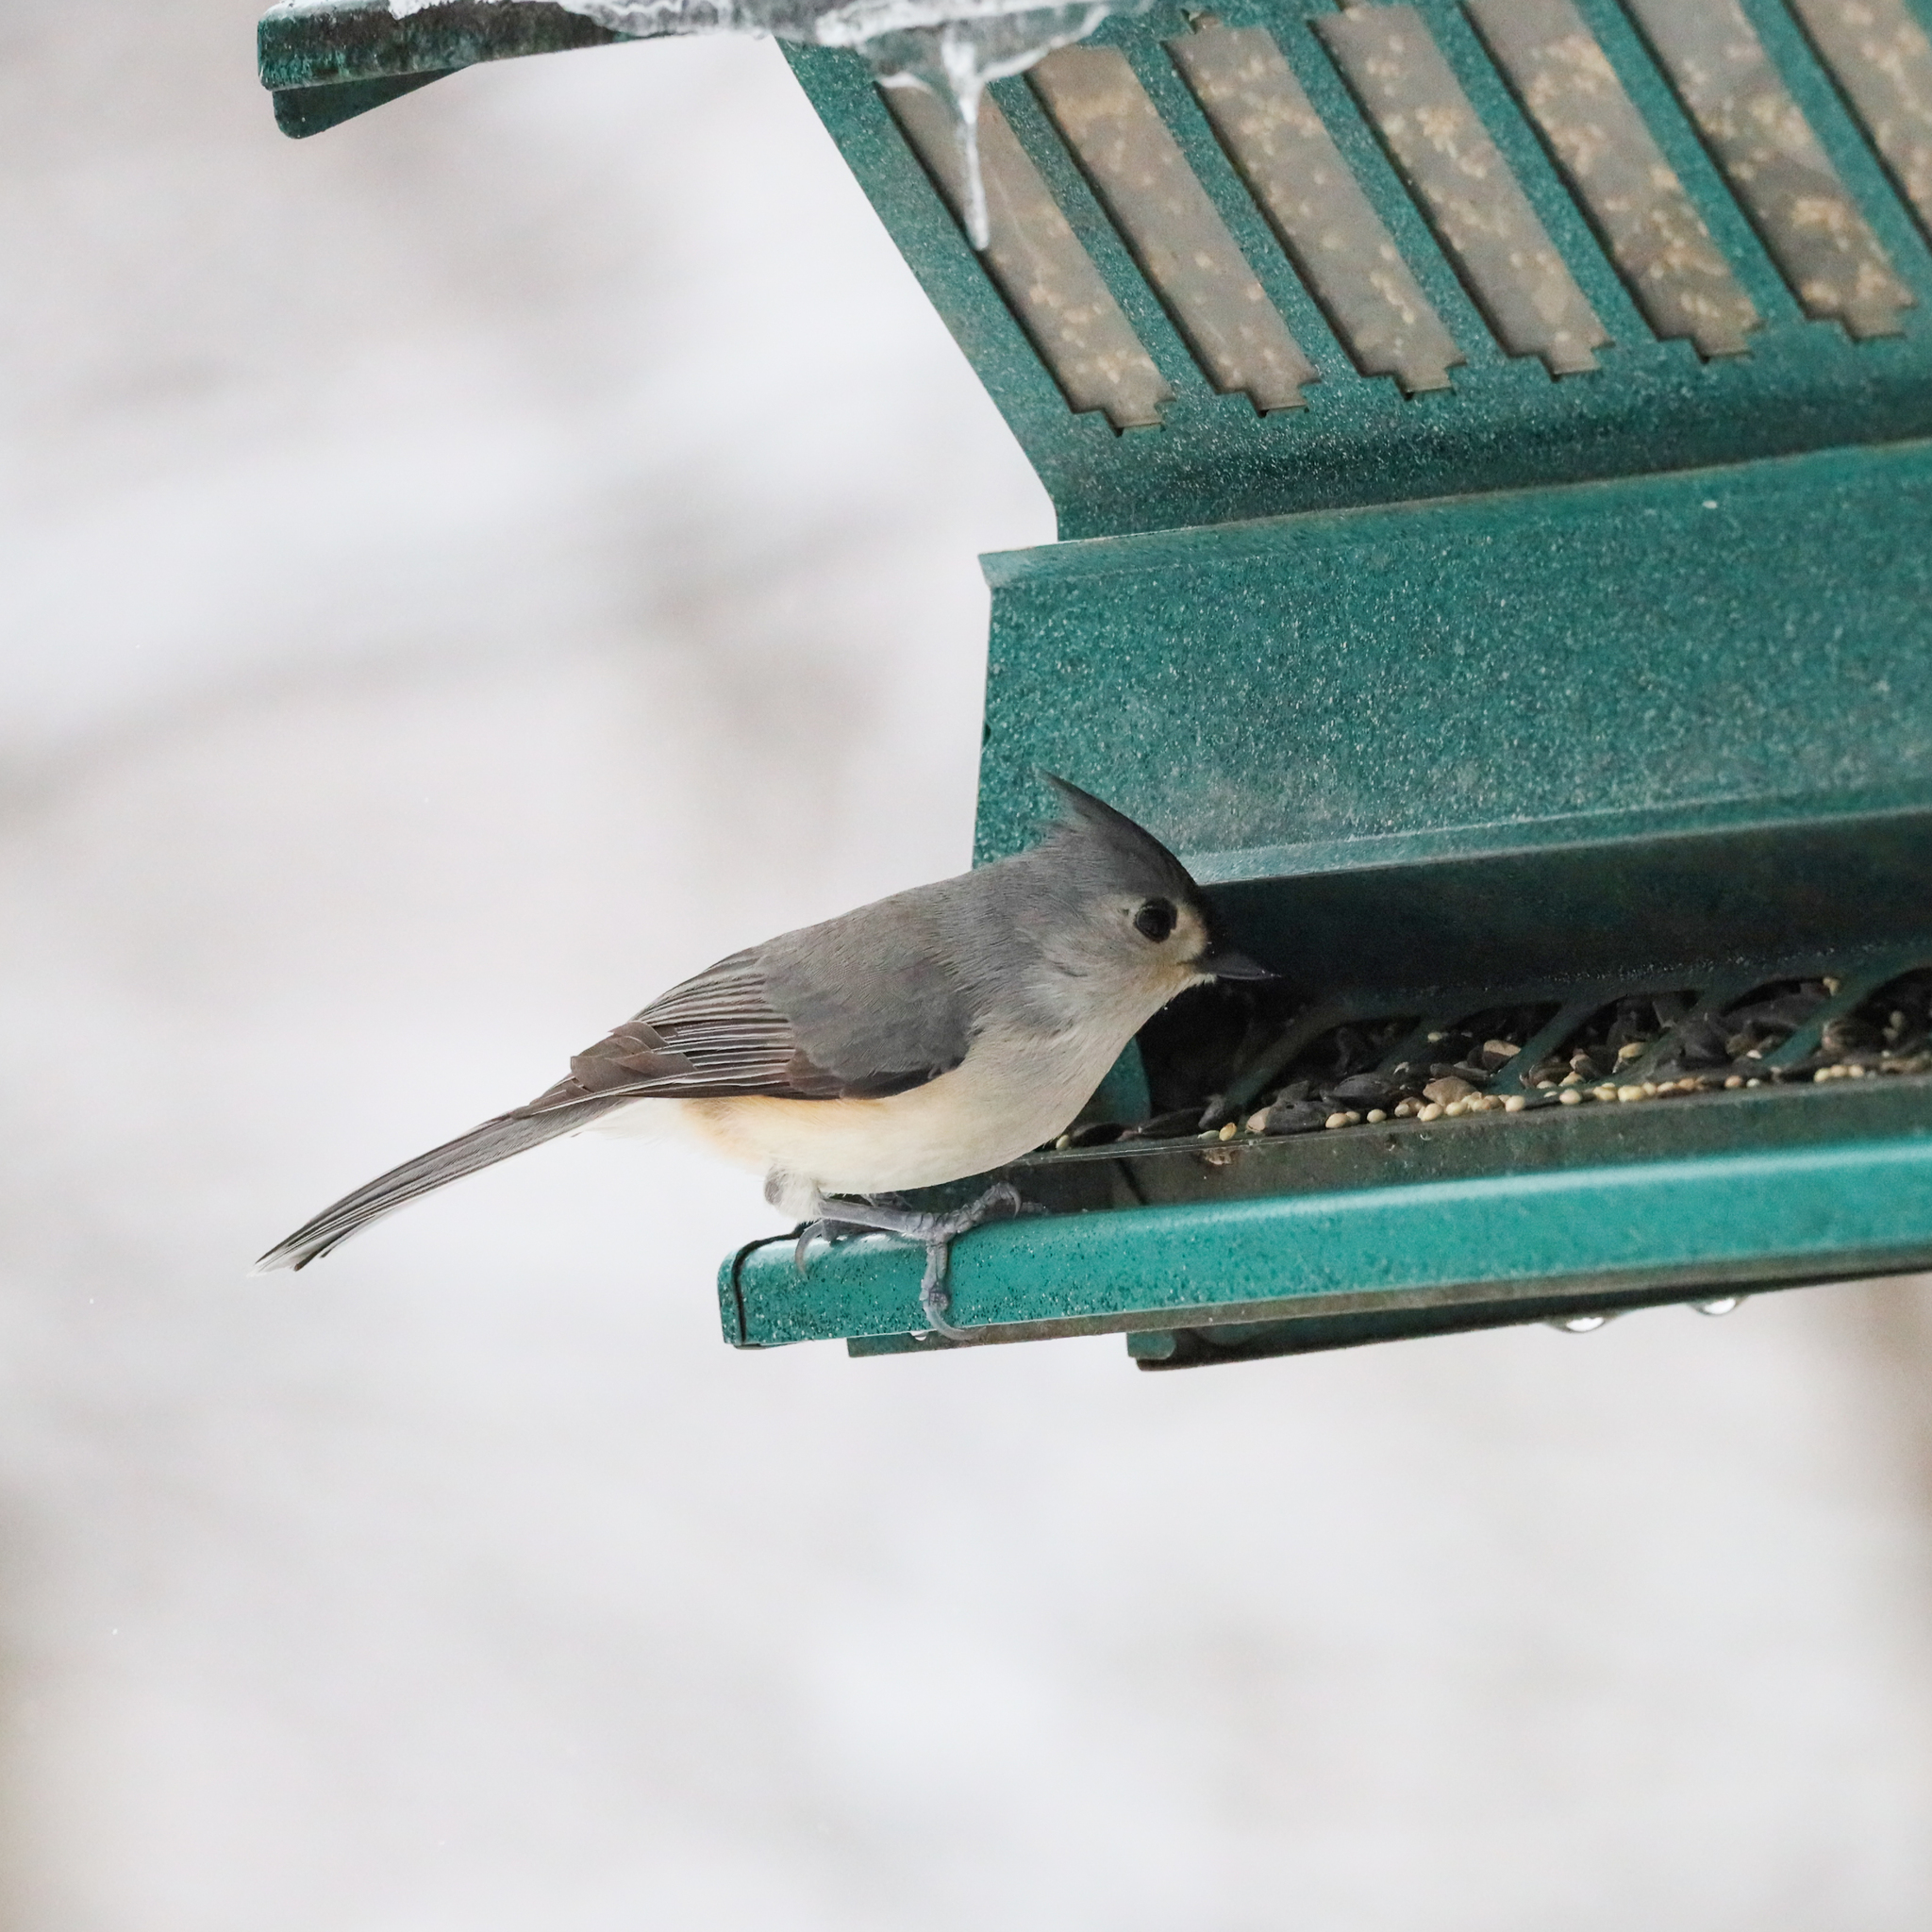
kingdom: Animalia
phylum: Chordata
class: Aves
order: Passeriformes
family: Paridae
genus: Baeolophus
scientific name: Baeolophus bicolor
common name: Tufted titmouse
